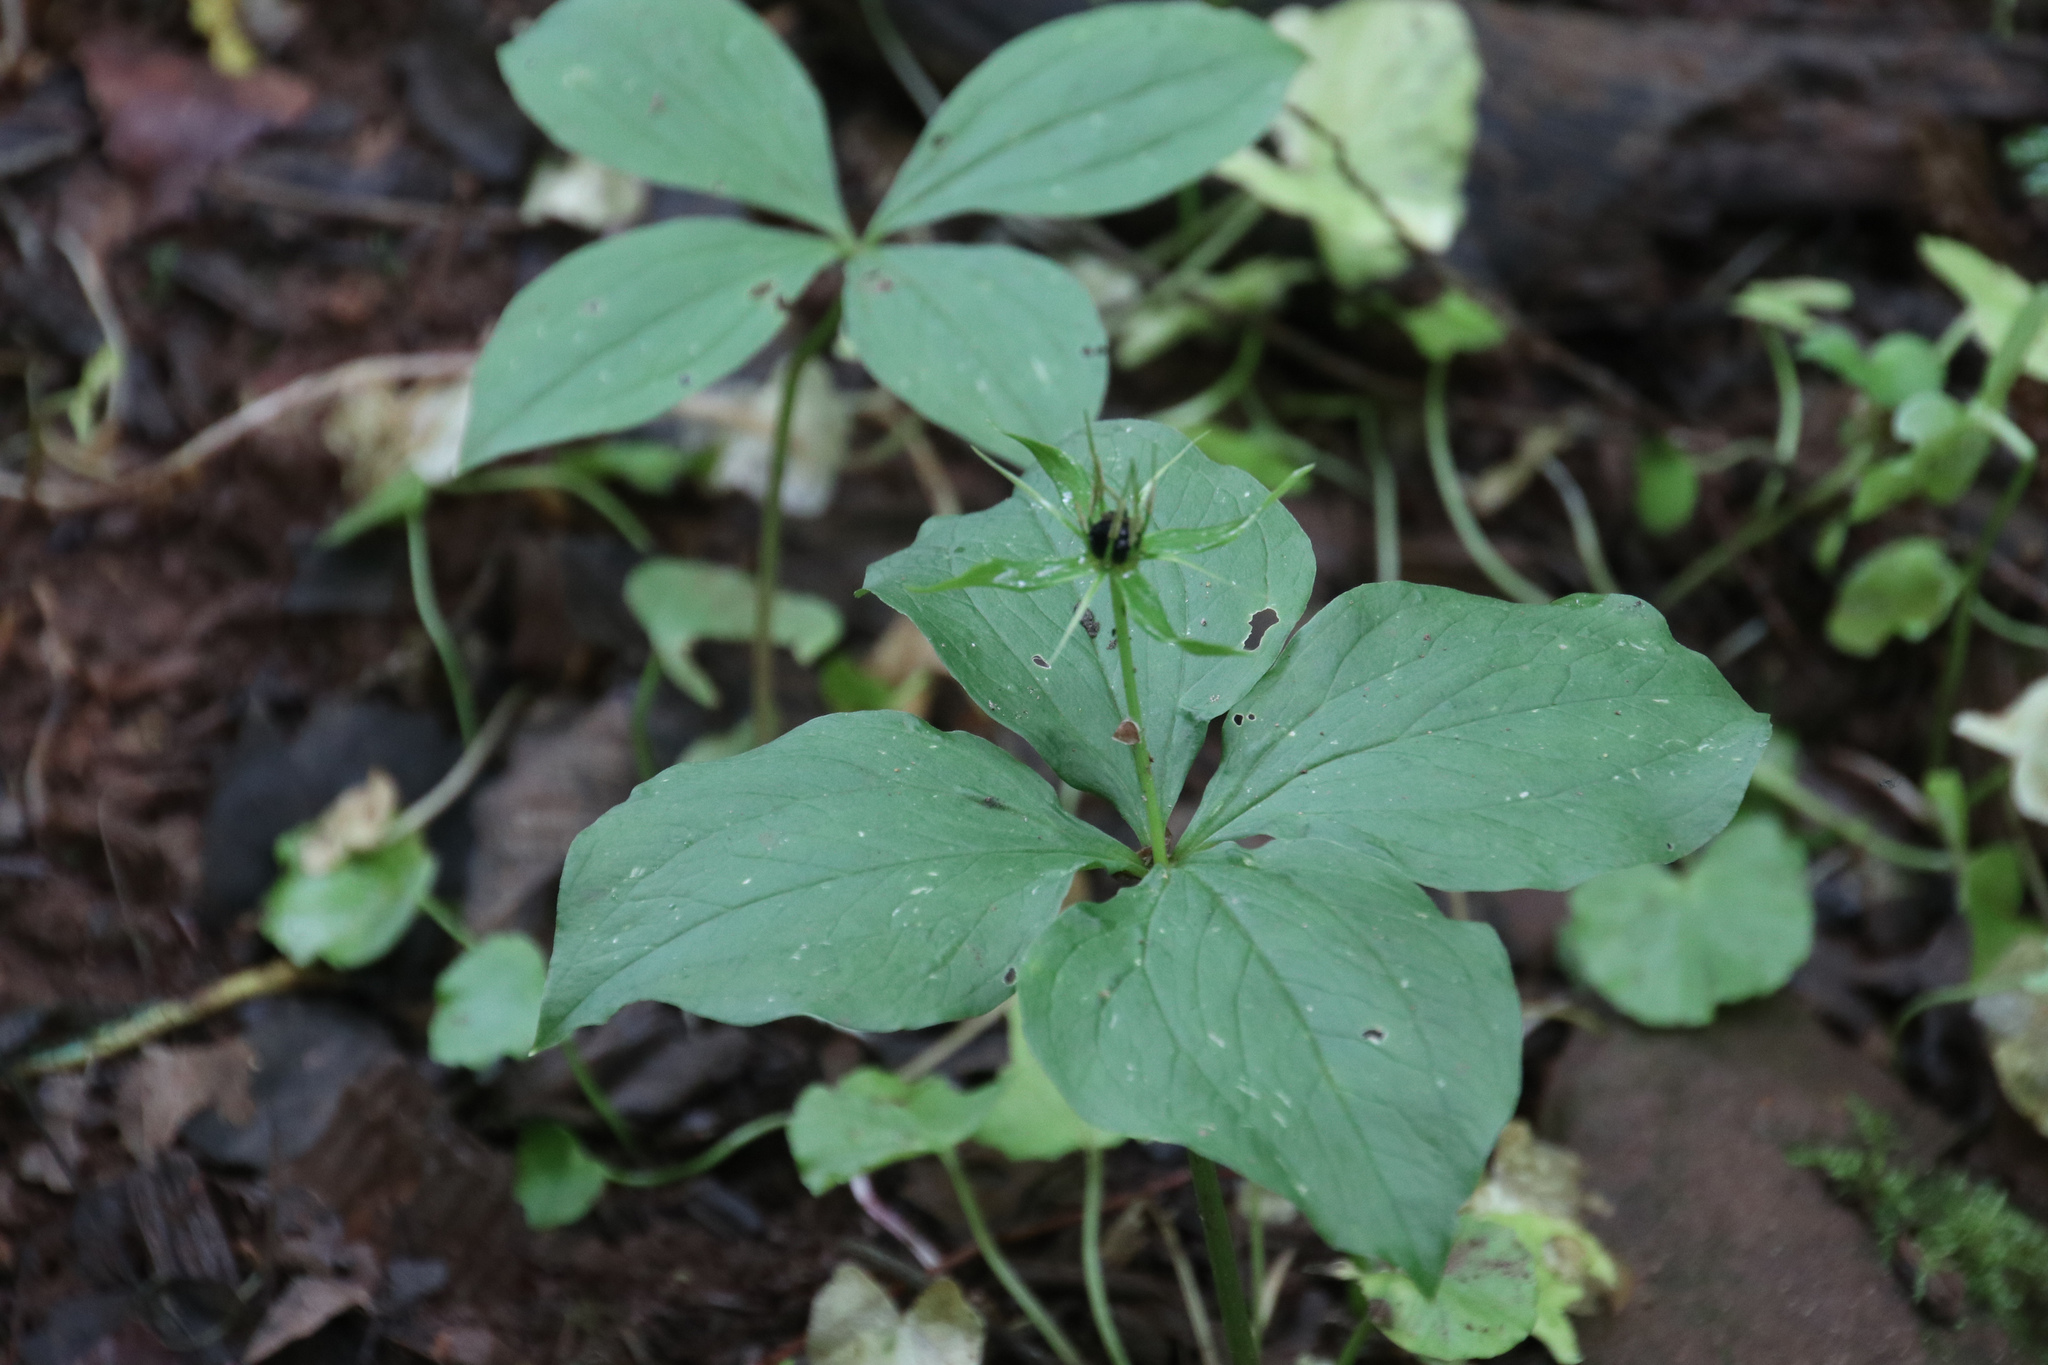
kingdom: Plantae
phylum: Tracheophyta
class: Liliopsida
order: Liliales
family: Melanthiaceae
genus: Paris
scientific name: Paris quadrifolia
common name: Herb-paris
